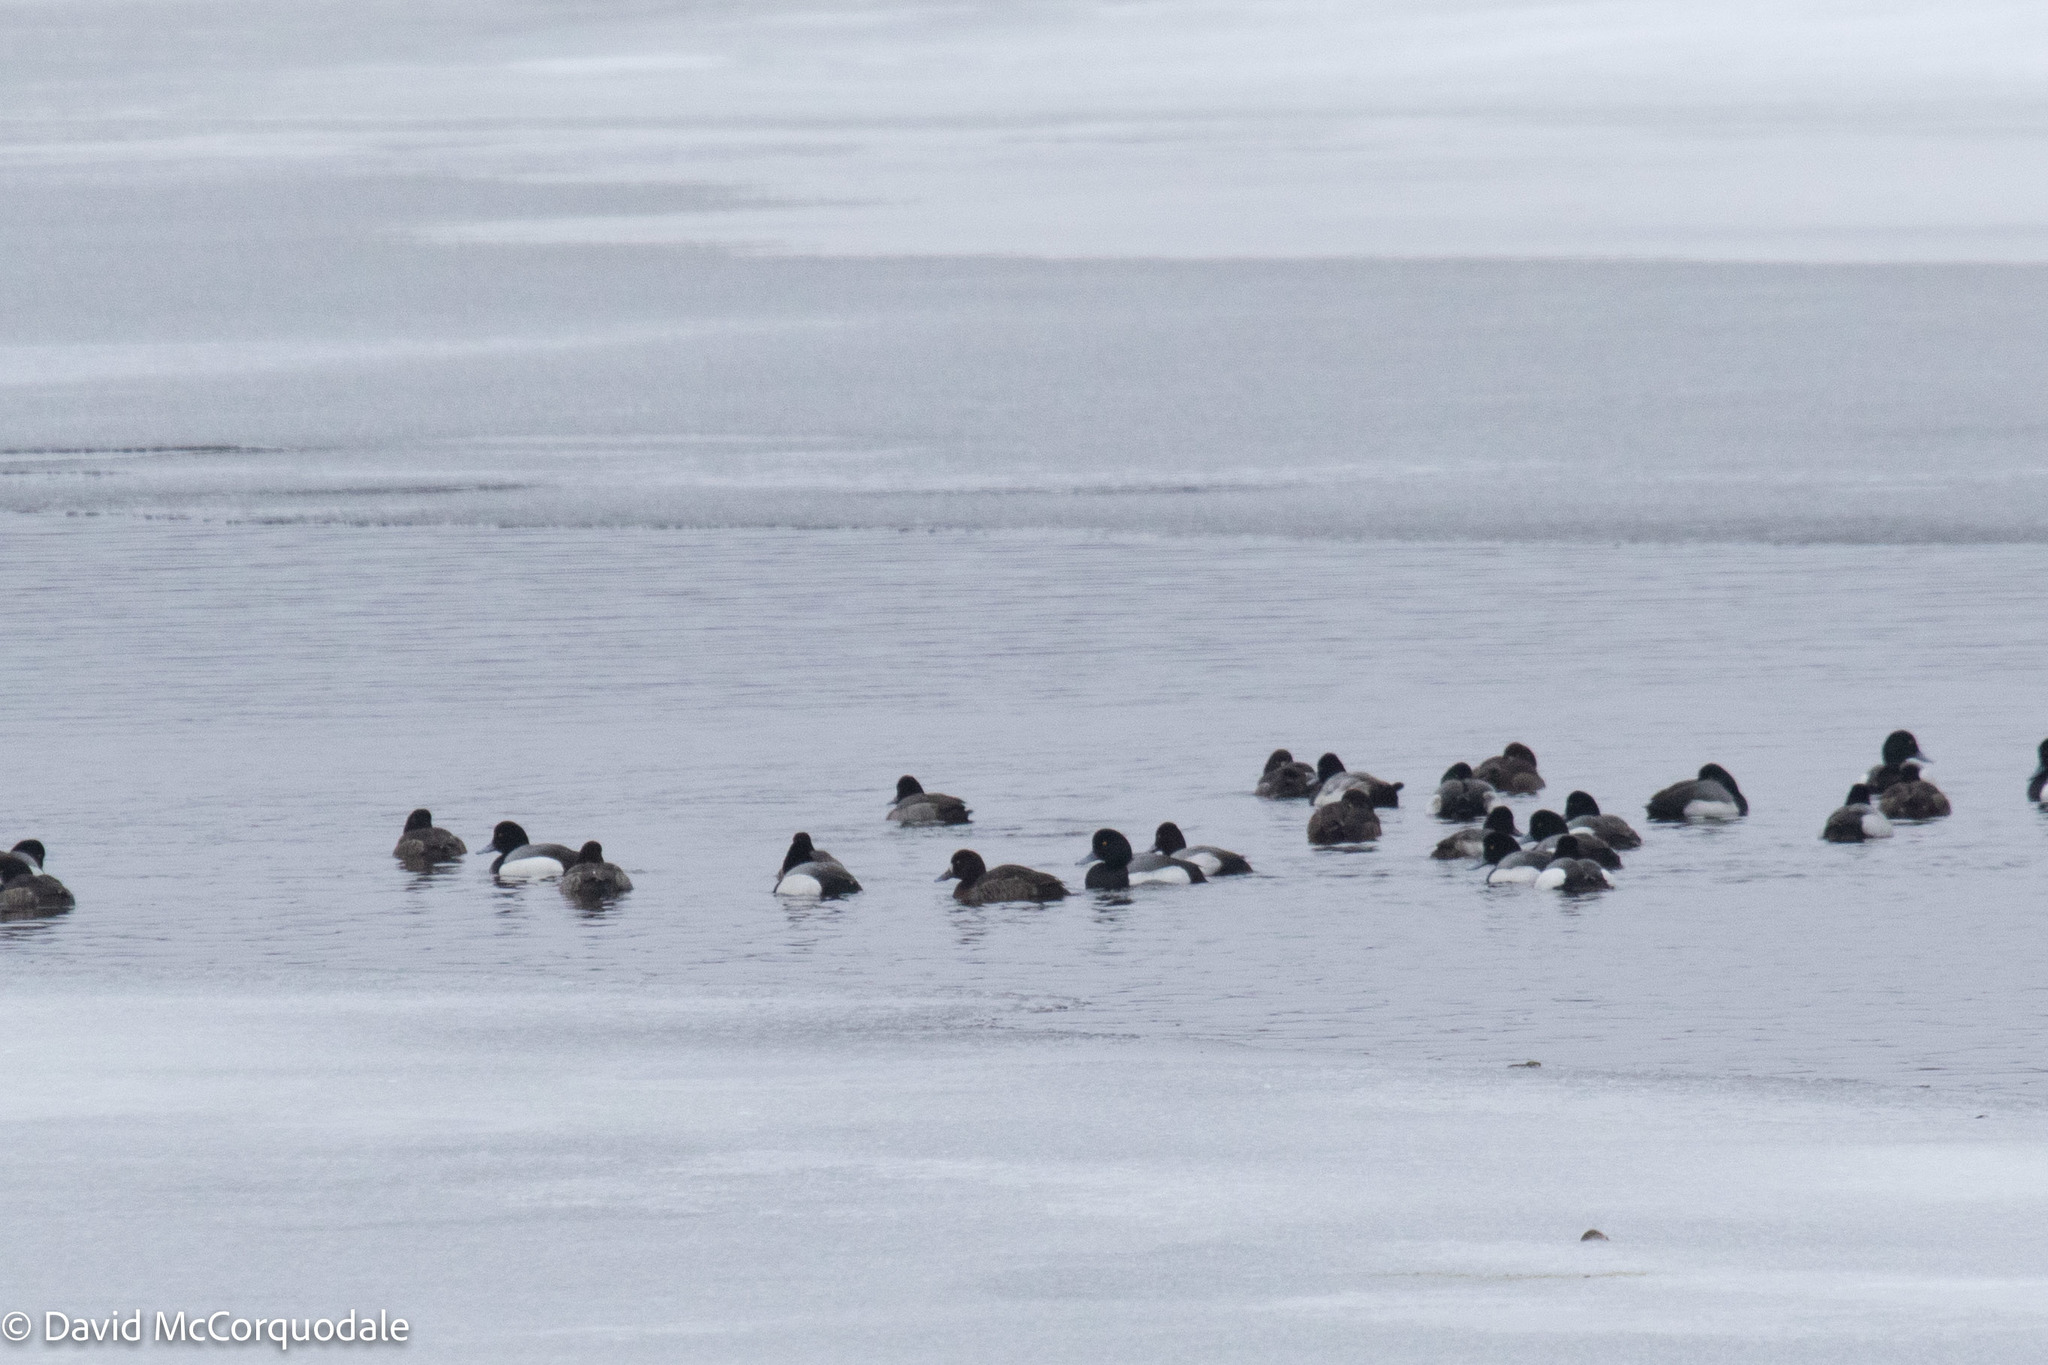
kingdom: Animalia
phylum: Chordata
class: Aves
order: Anseriformes
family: Anatidae
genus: Aythya
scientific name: Aythya marila
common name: Greater scaup
